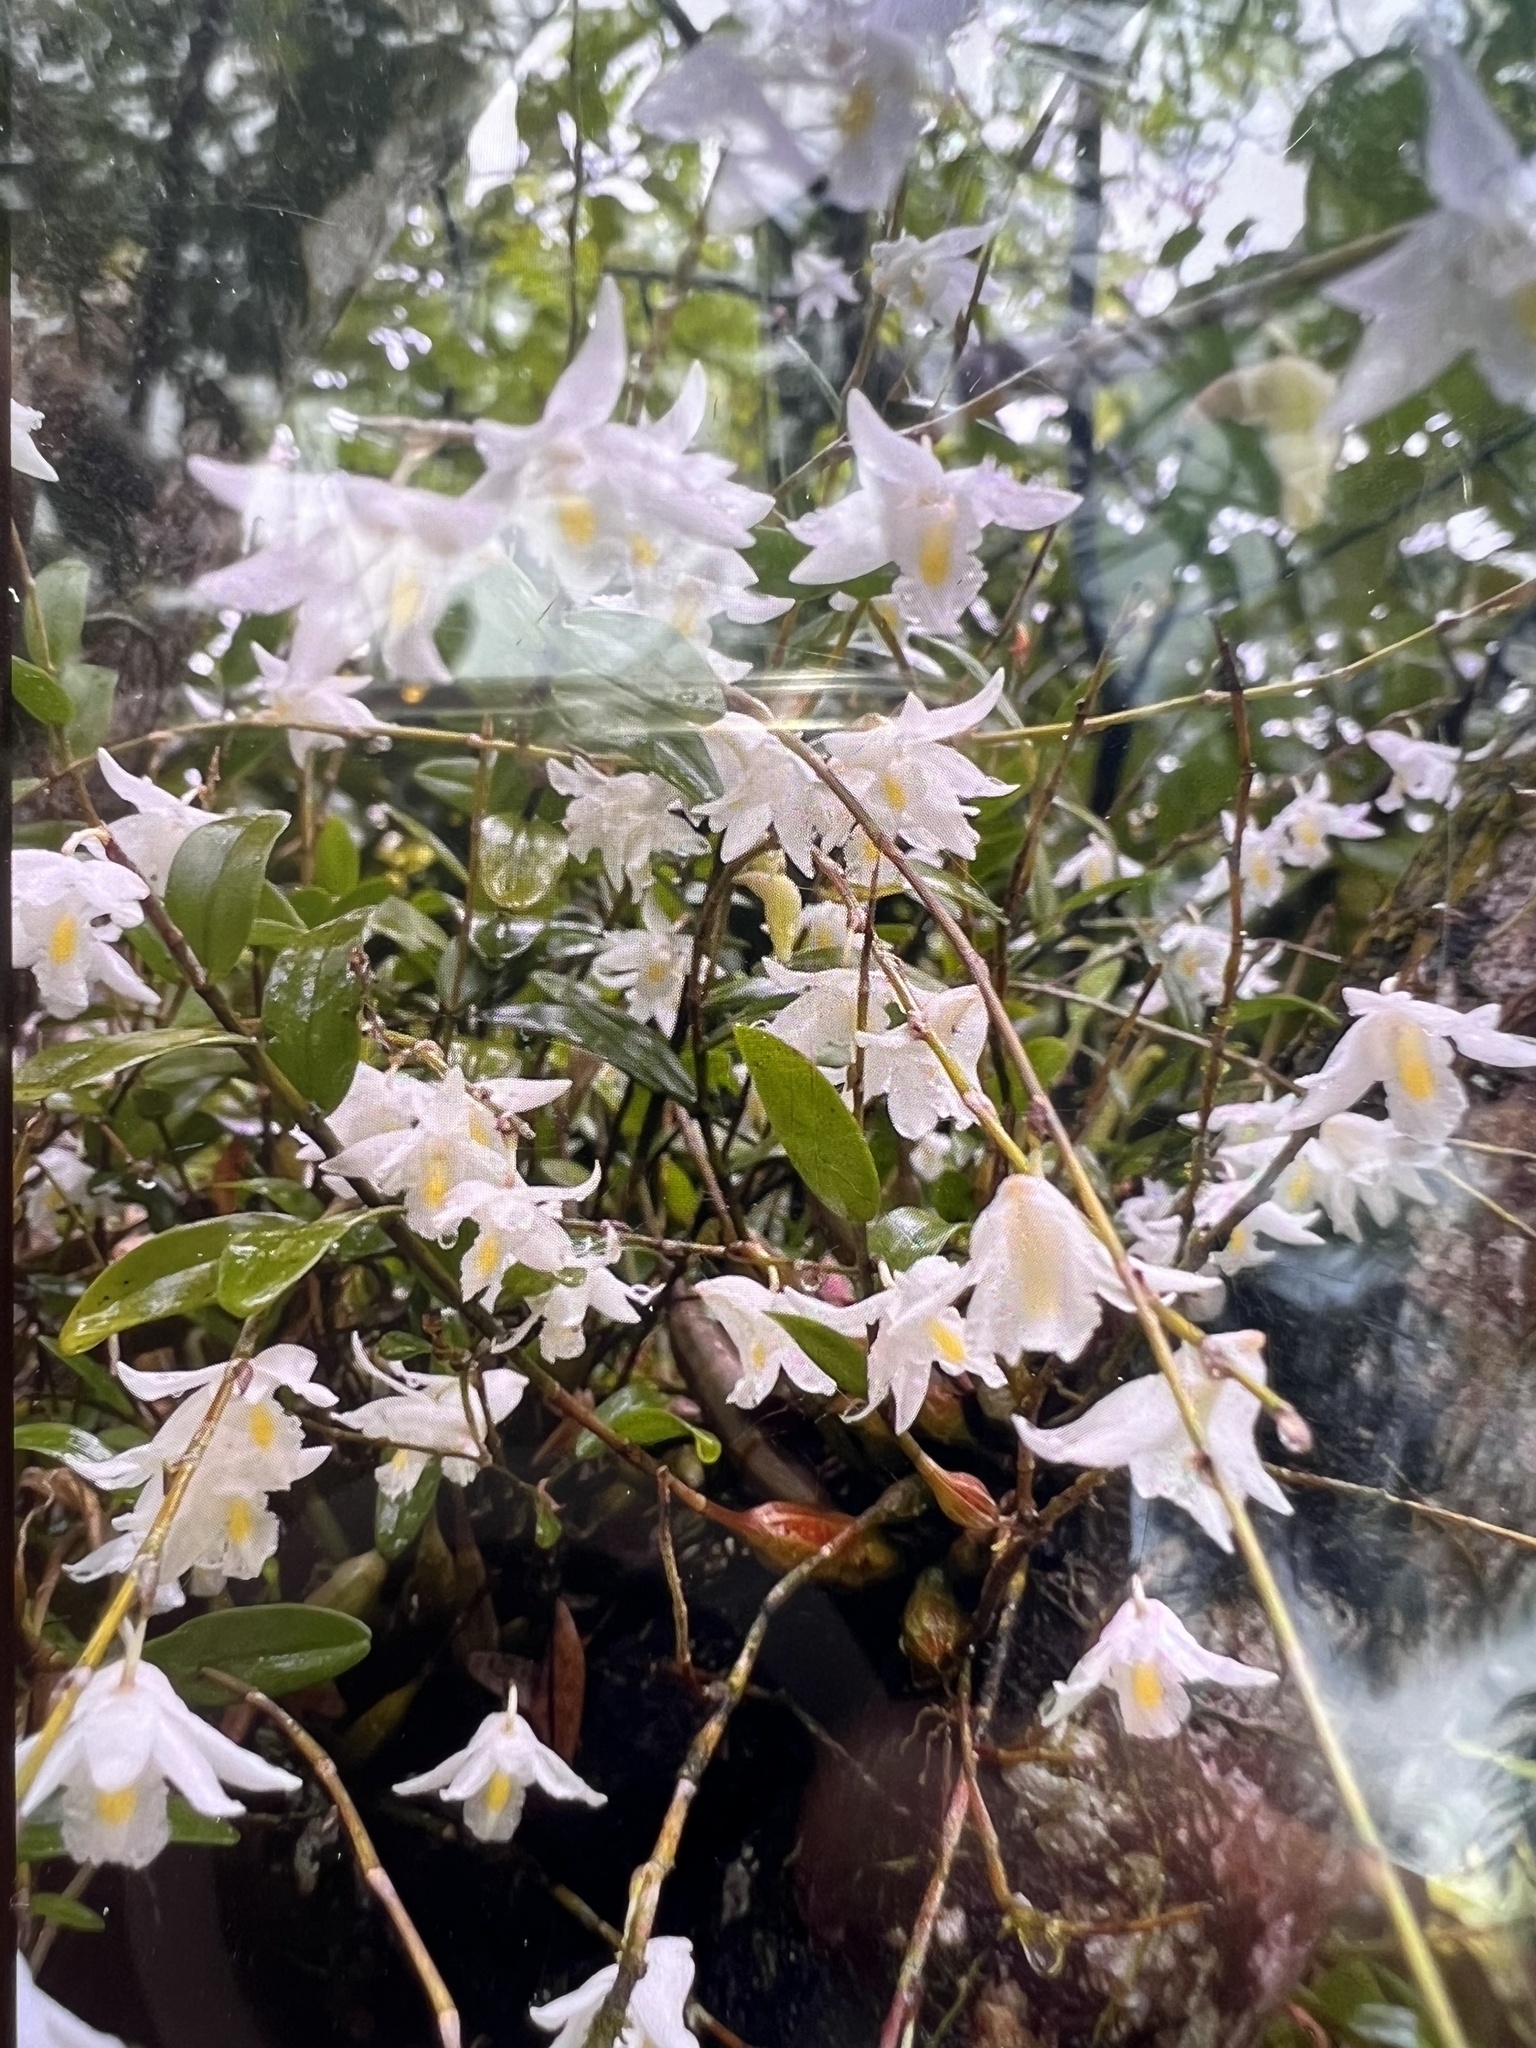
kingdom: Plantae
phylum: Tracheophyta
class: Liliopsida
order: Asparagales
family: Orchidaceae
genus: Dendrobium
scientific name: Dendrobium crumenatum
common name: Orchid
